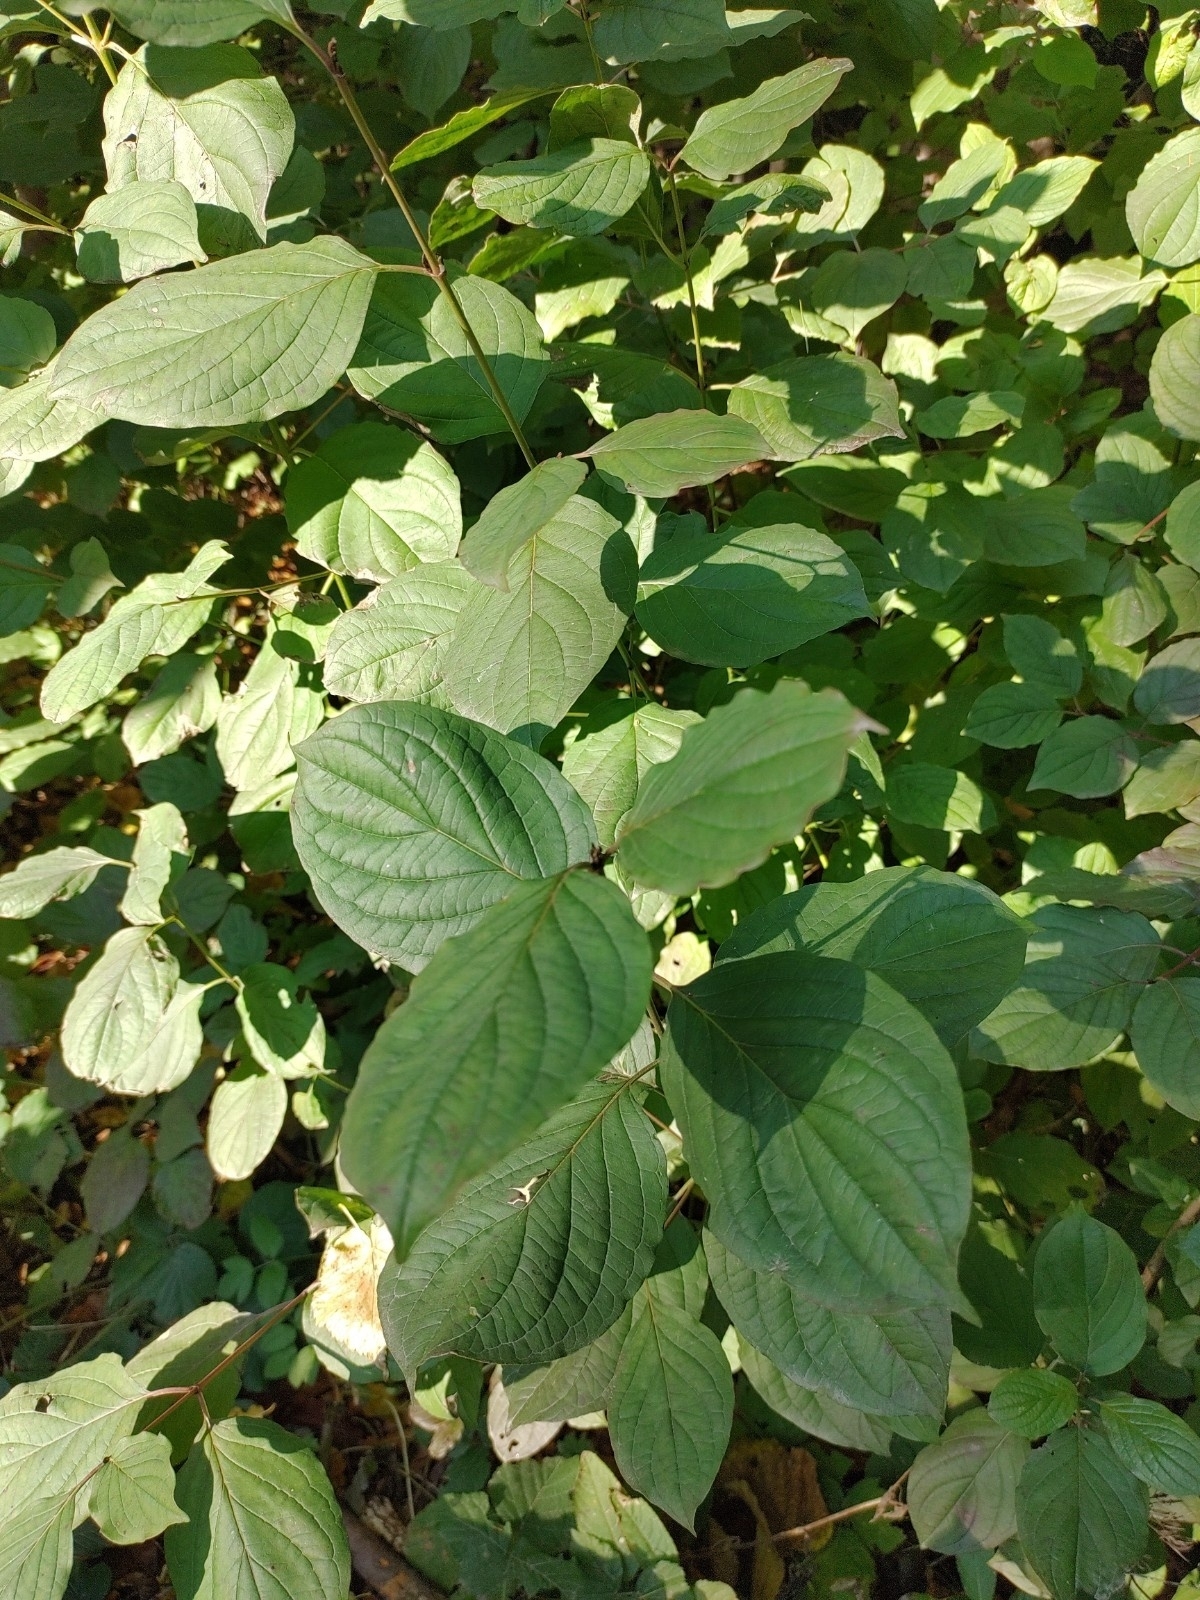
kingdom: Plantae
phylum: Tracheophyta
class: Magnoliopsida
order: Cornales
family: Cornaceae
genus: Cornus
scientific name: Cornus sanguinea
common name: Dogwood
